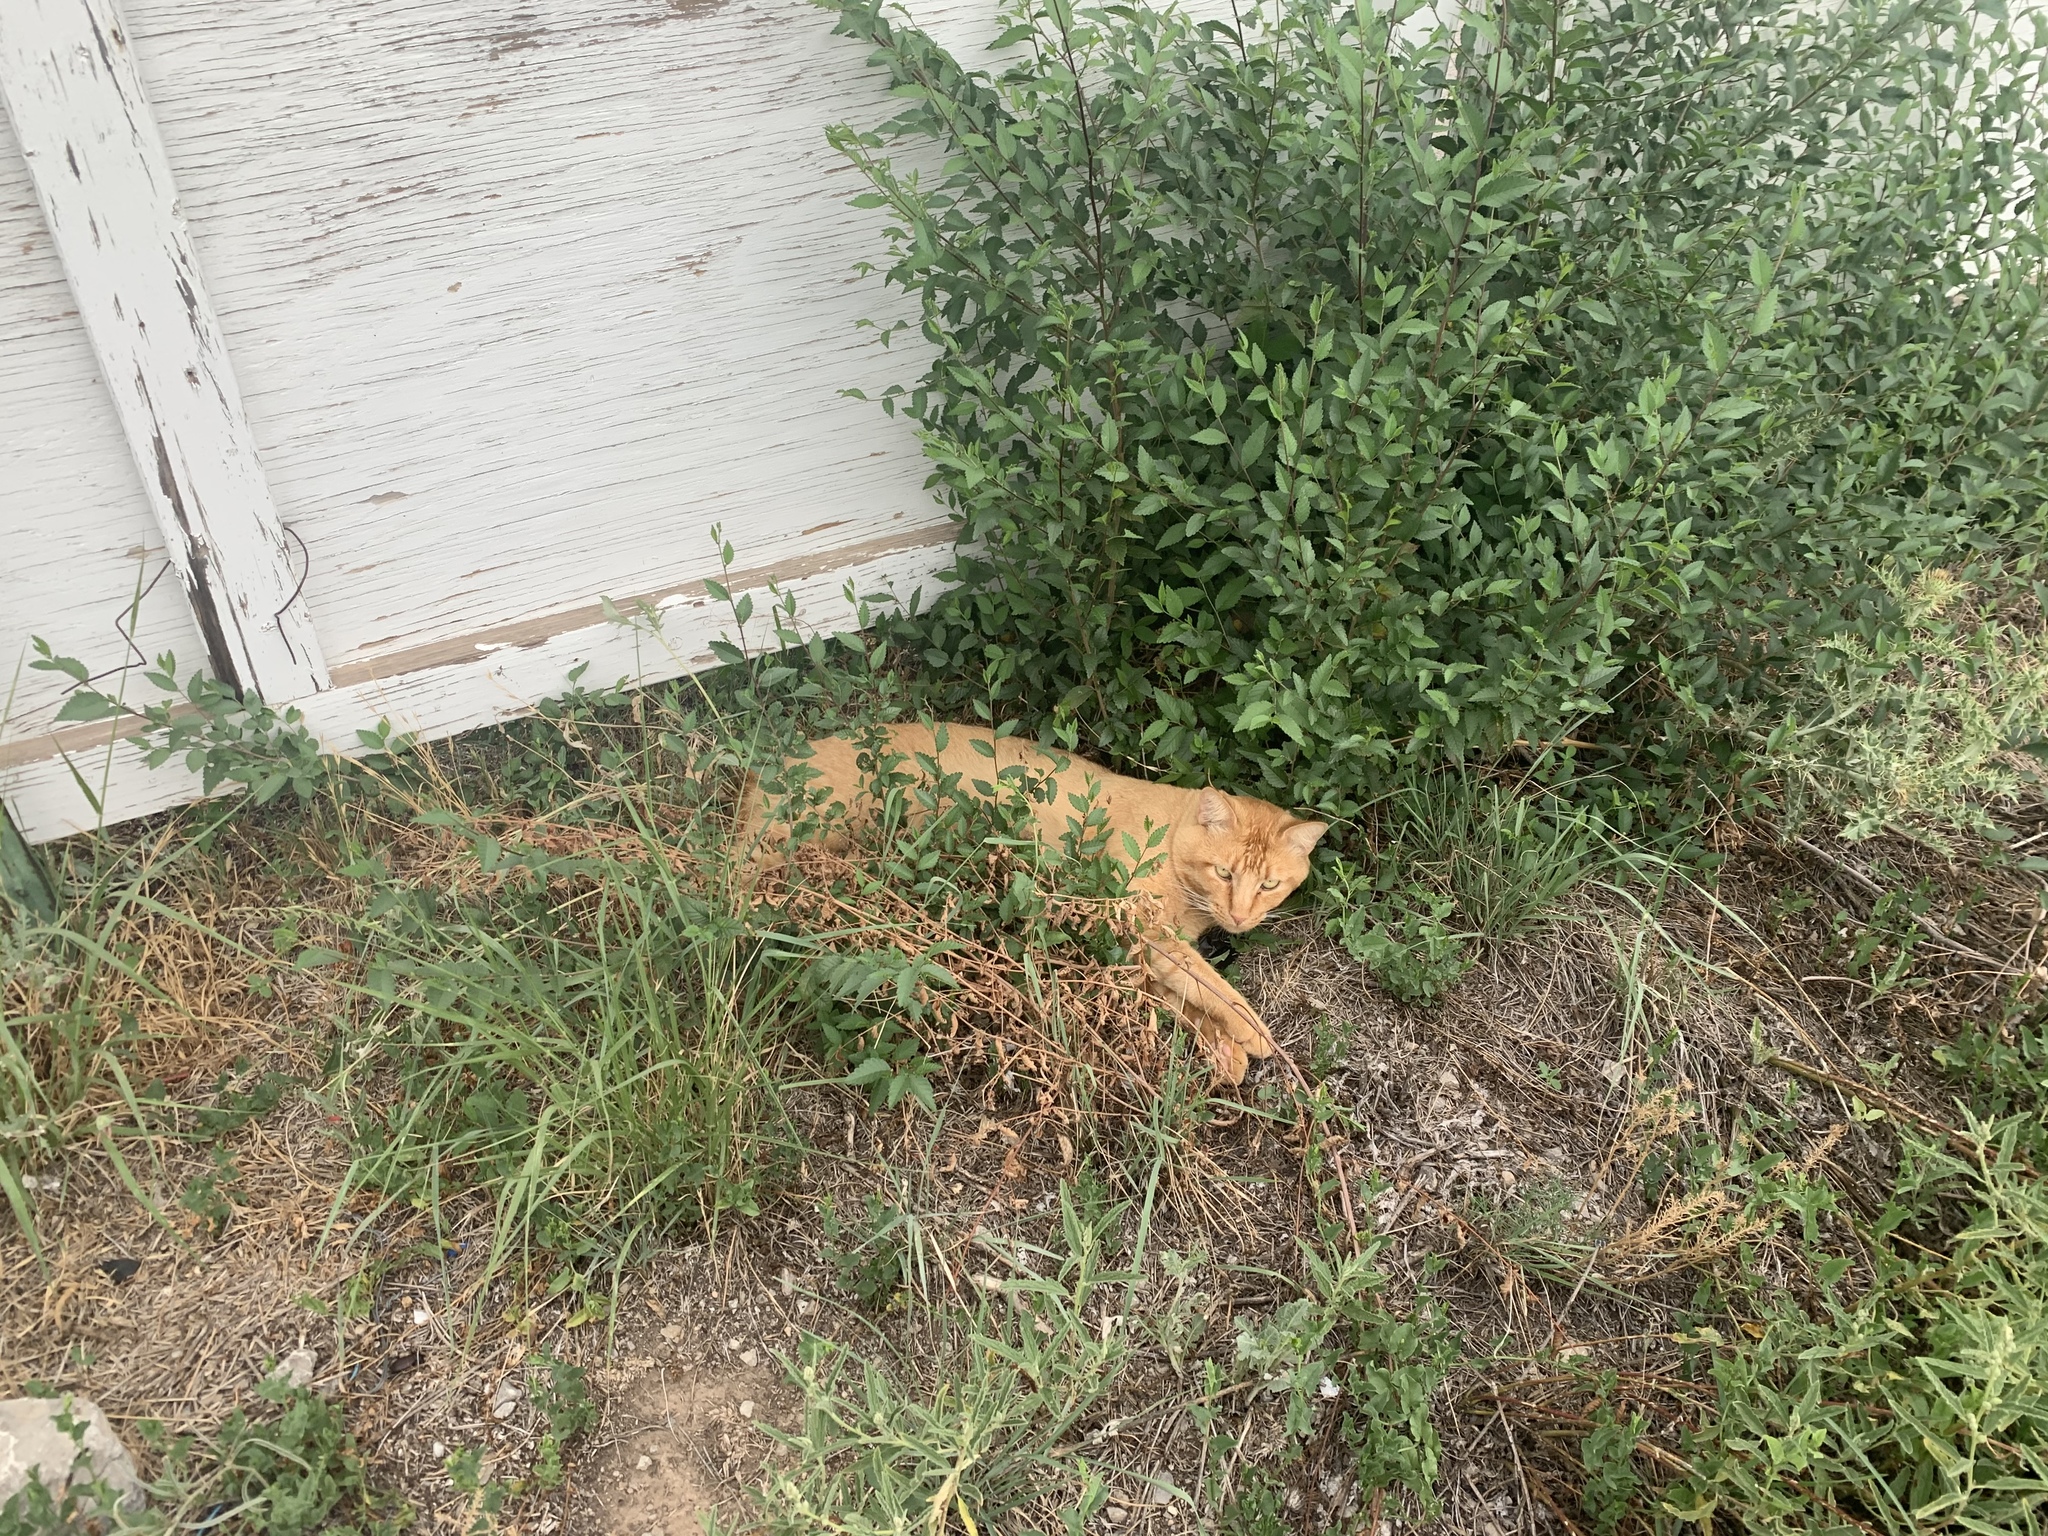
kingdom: Animalia
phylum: Chordata
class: Mammalia
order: Carnivora
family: Felidae
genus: Felis
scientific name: Felis catus
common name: Domestic cat
